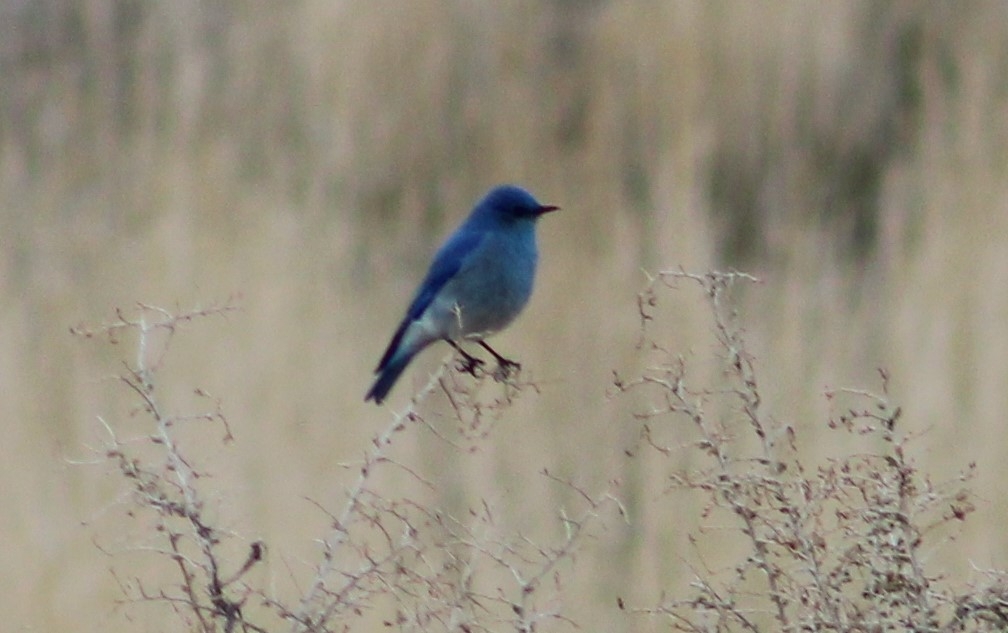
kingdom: Animalia
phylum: Chordata
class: Aves
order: Passeriformes
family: Turdidae
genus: Sialia
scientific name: Sialia currucoides
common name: Mountain bluebird
